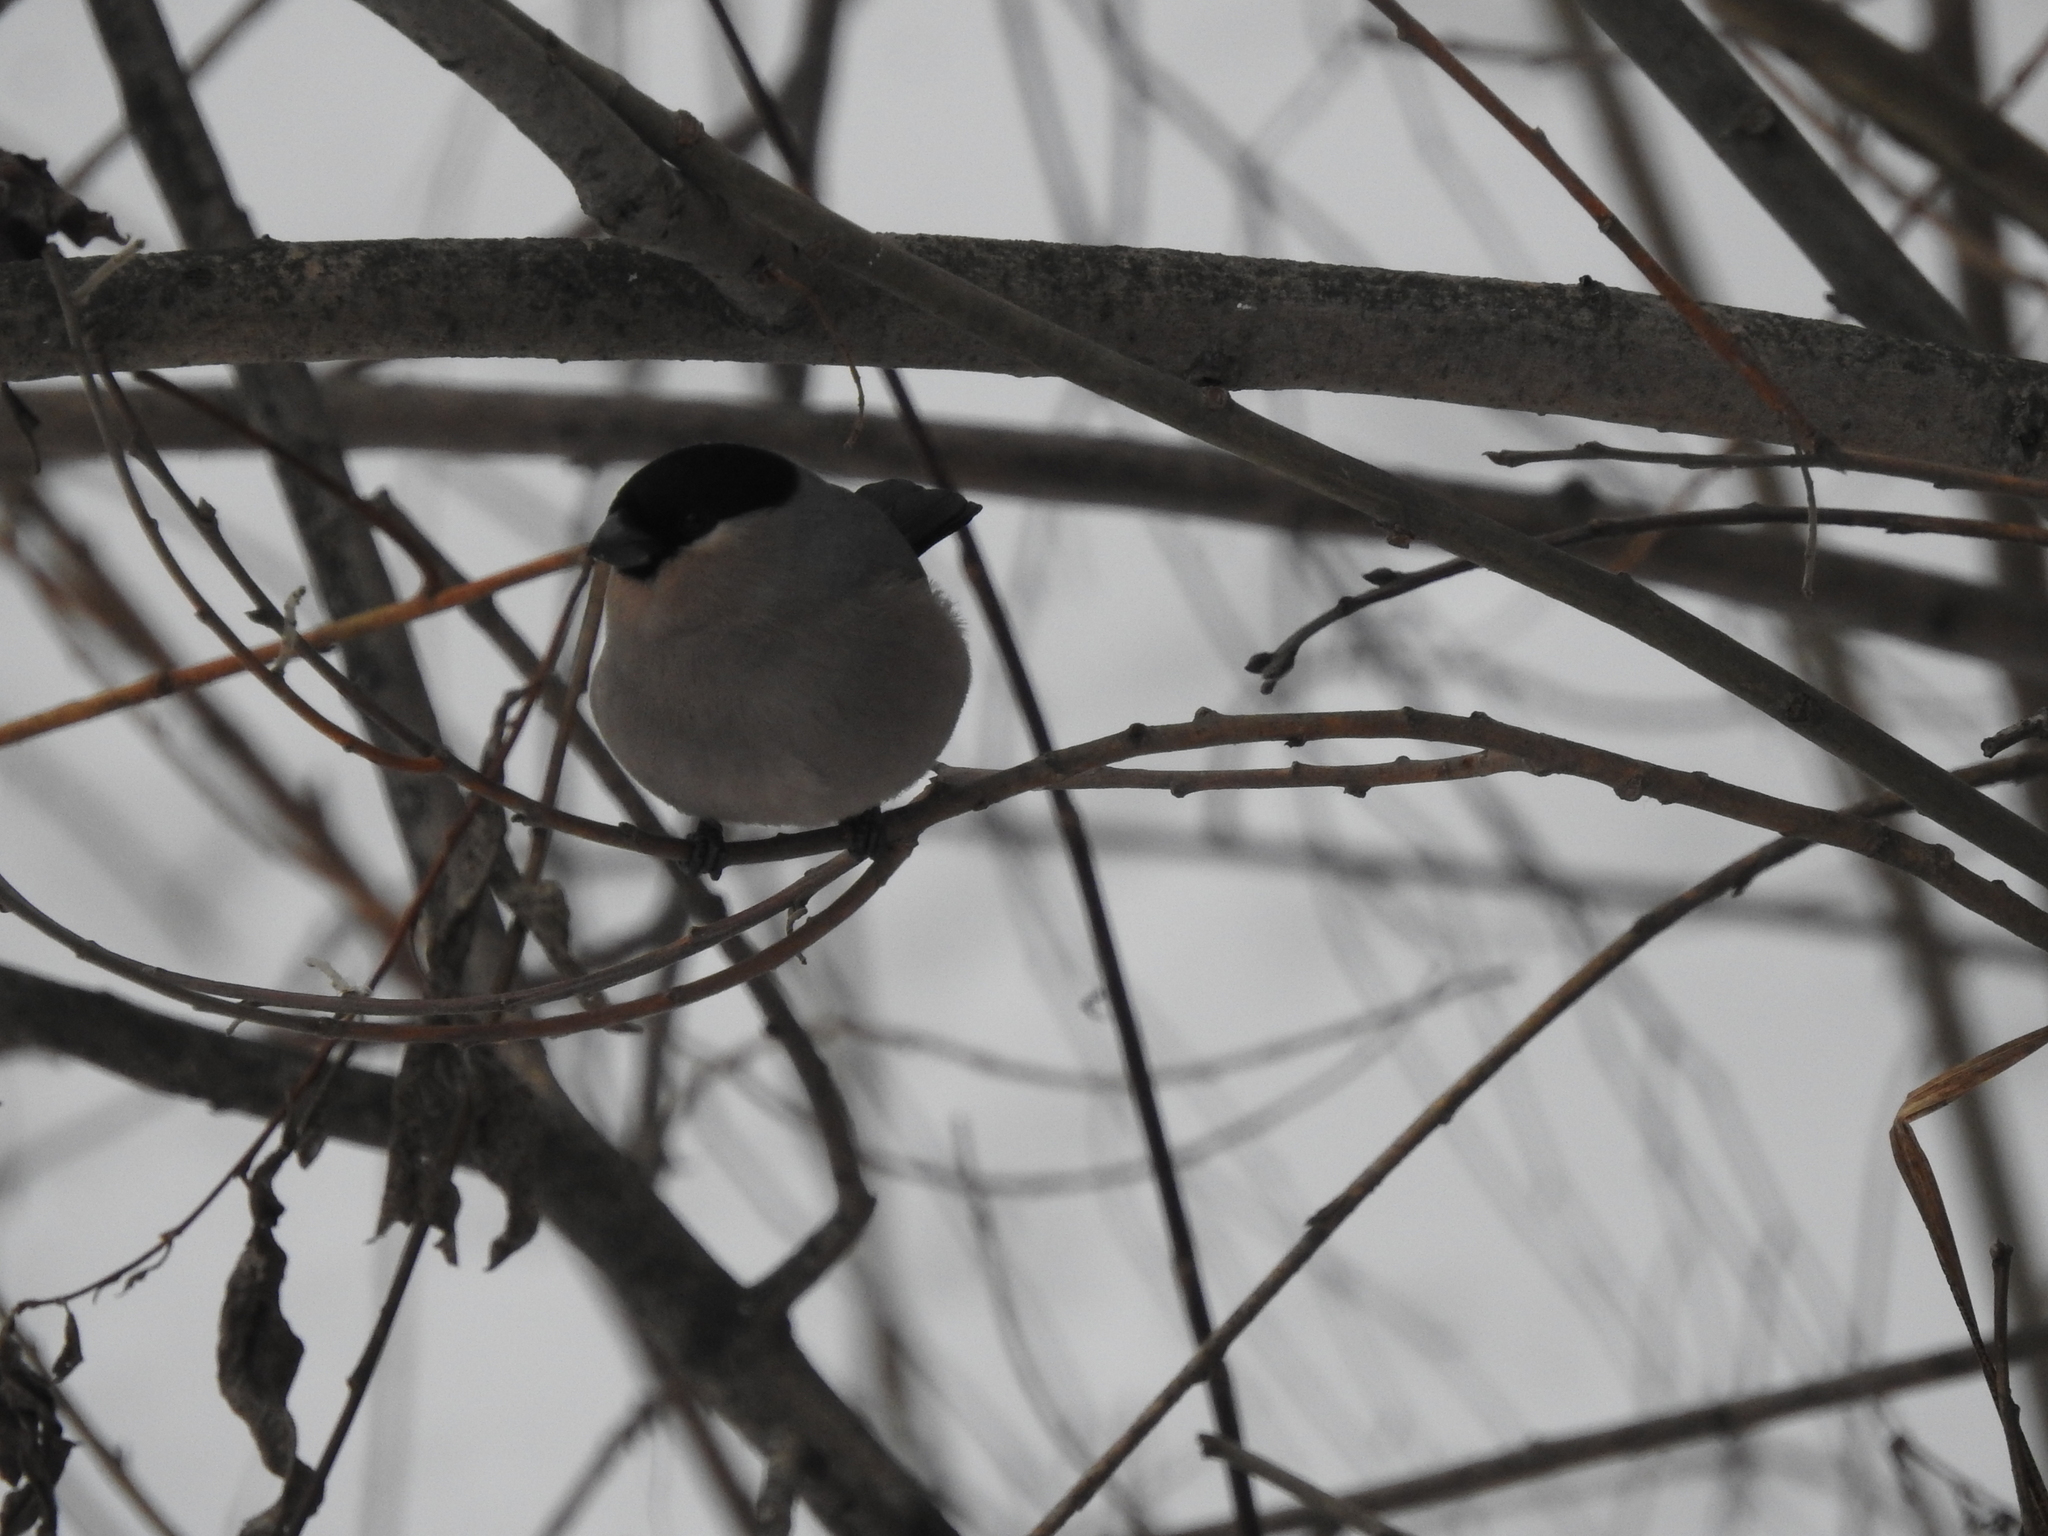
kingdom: Animalia
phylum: Chordata
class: Aves
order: Passeriformes
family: Fringillidae
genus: Pyrrhula
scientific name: Pyrrhula pyrrhula
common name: Eurasian bullfinch
